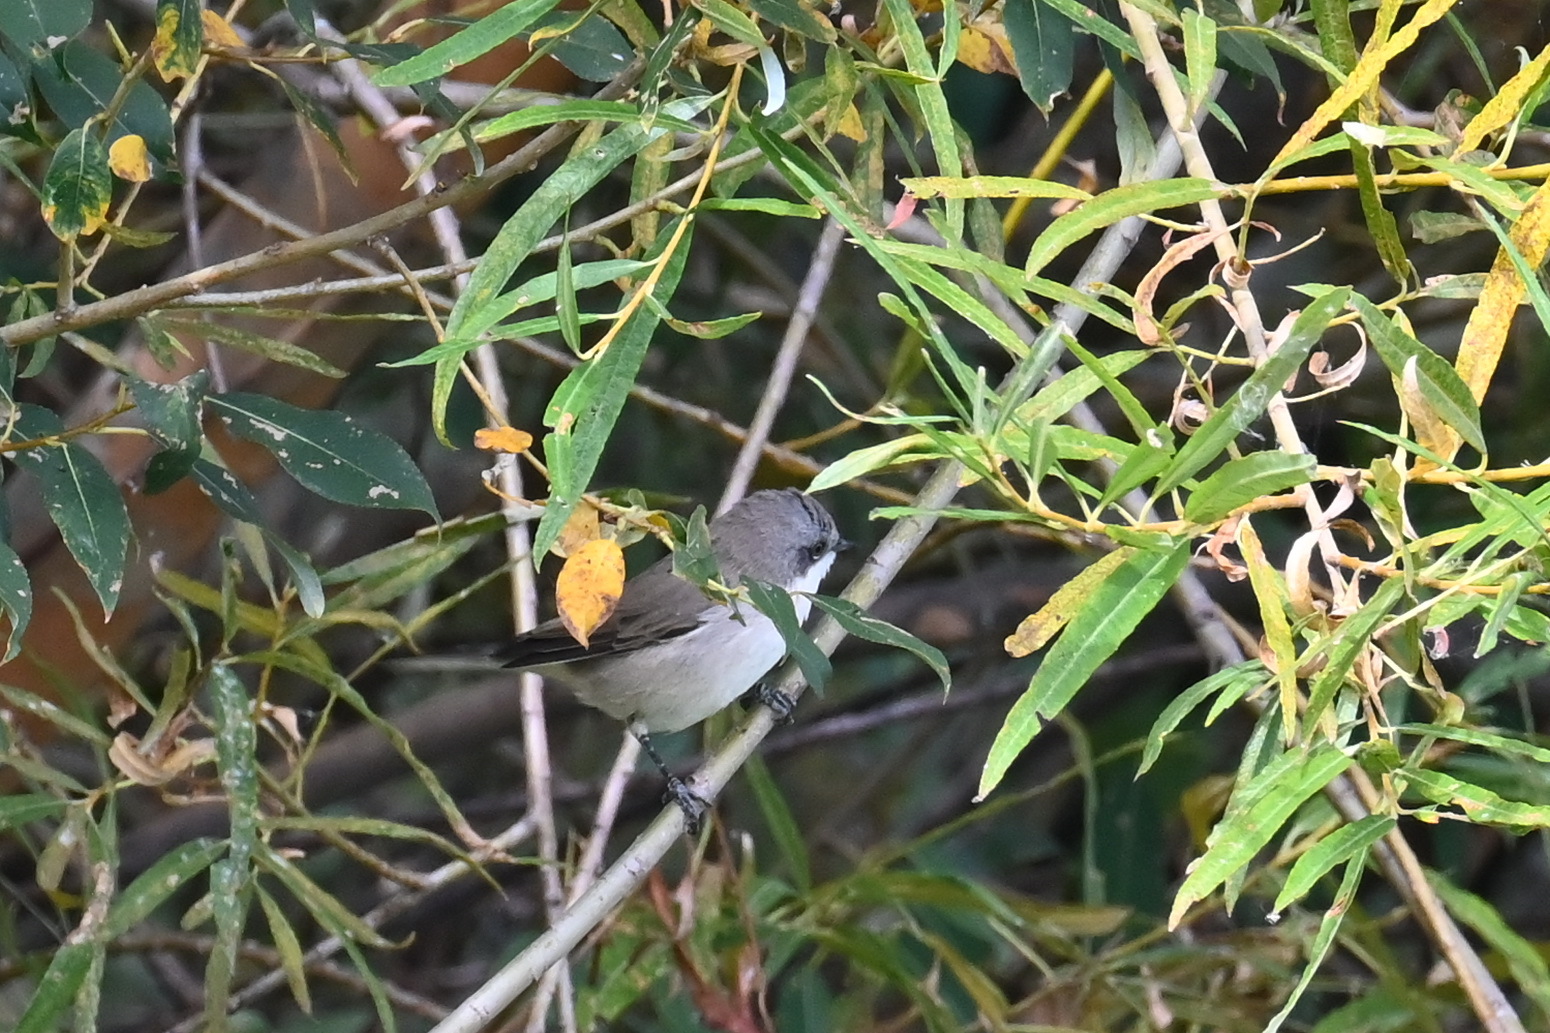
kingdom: Animalia
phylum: Chordata
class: Aves
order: Passeriformes
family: Sylviidae
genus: Sylvia
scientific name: Sylvia curruca
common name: Lesser whitethroat
